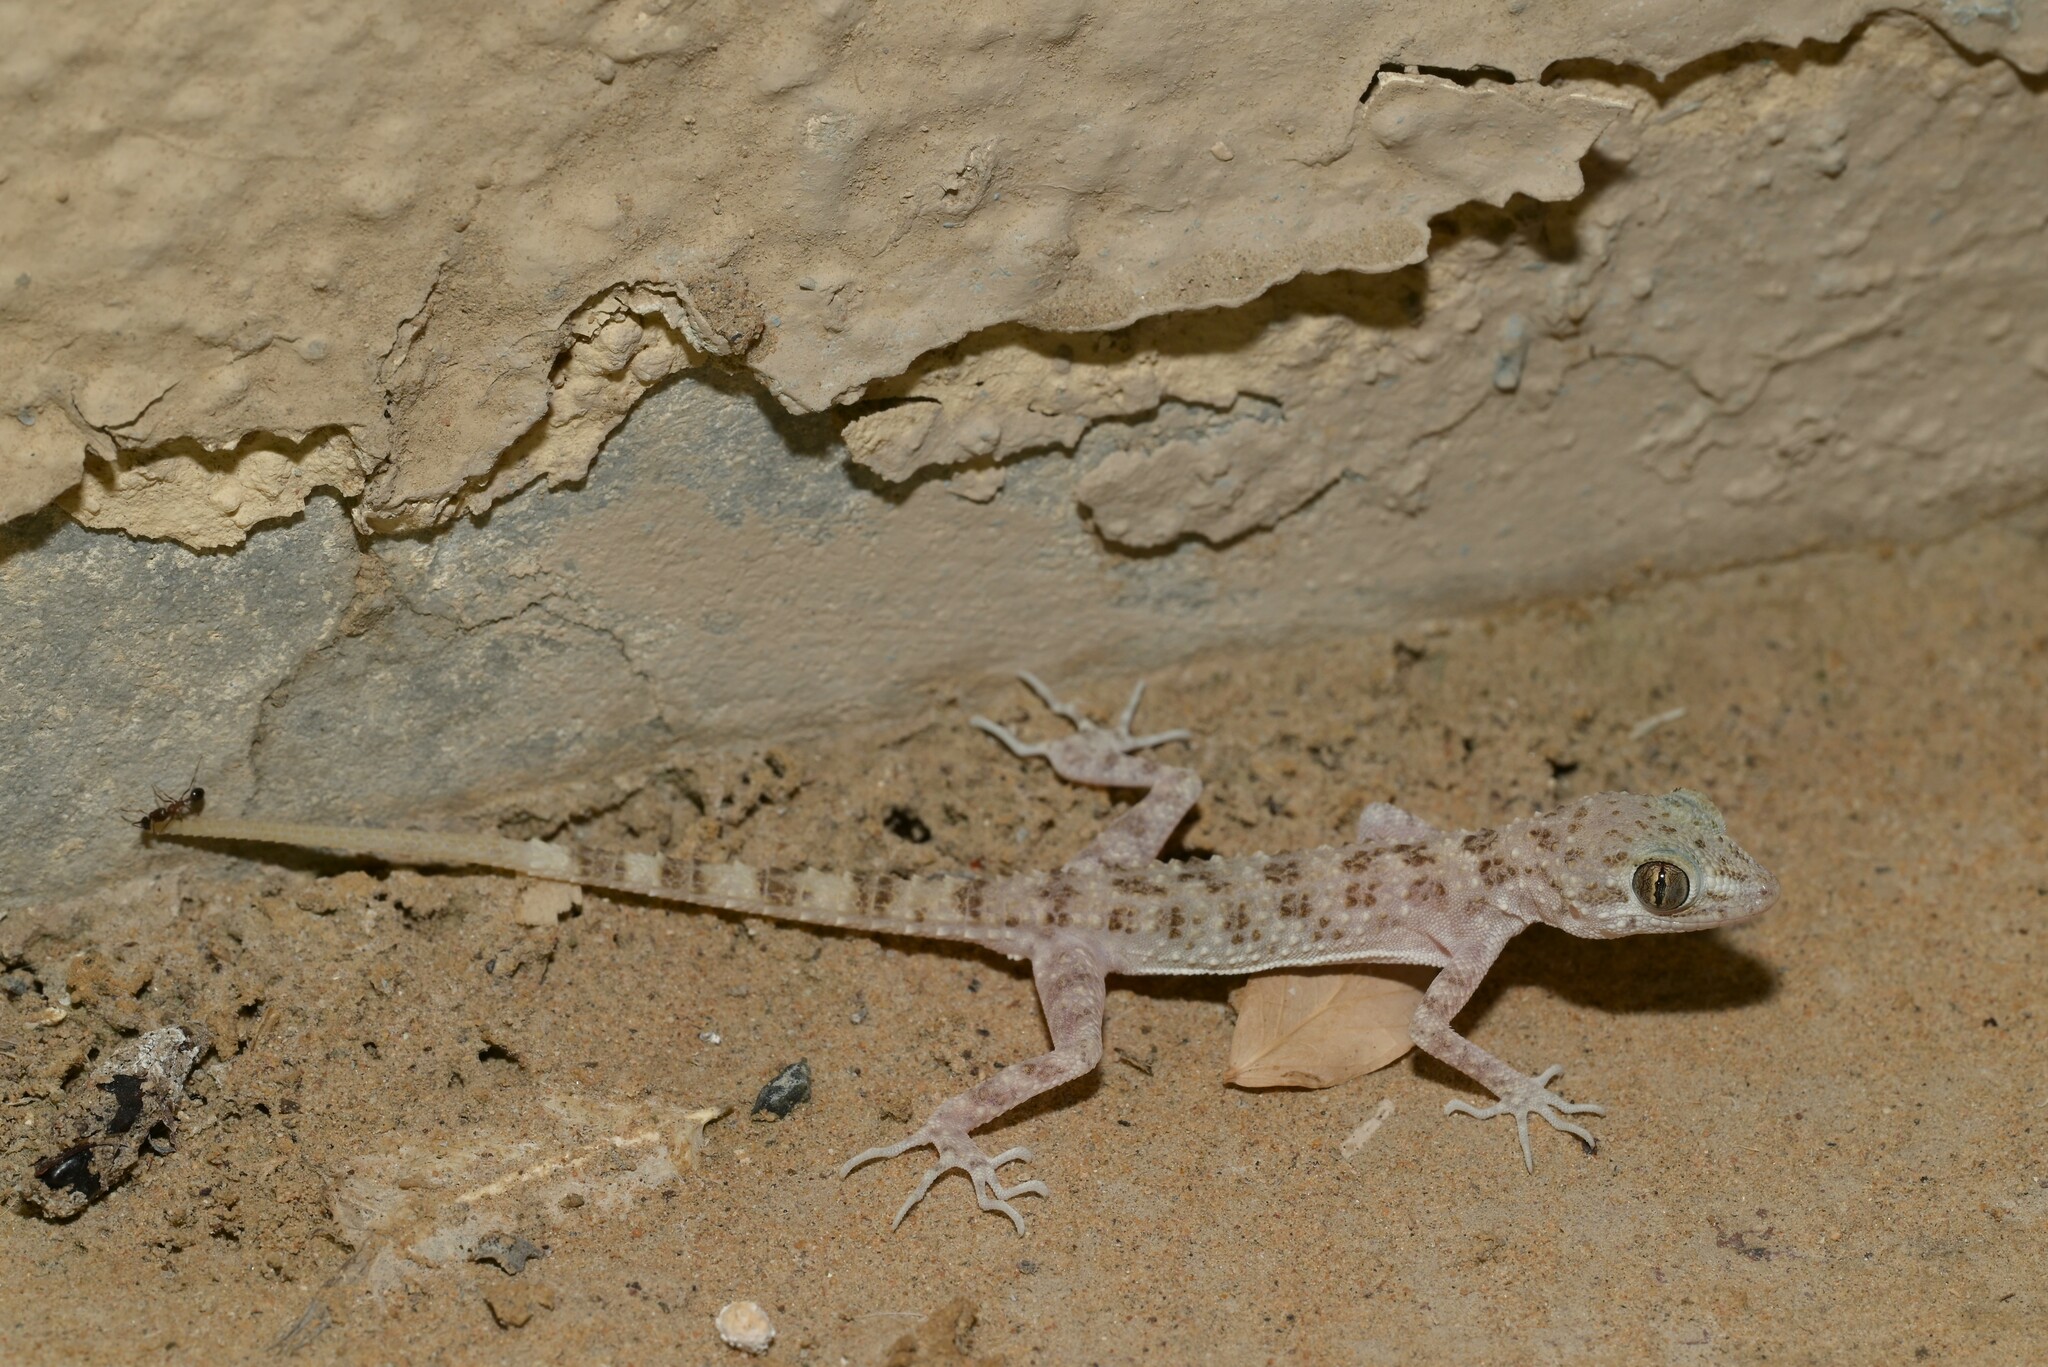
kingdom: Animalia
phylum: Chordata
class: Squamata
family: Gekkonidae
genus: Cyrtopodion
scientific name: Cyrtopodion scabrum
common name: Rough-tailed gecko
